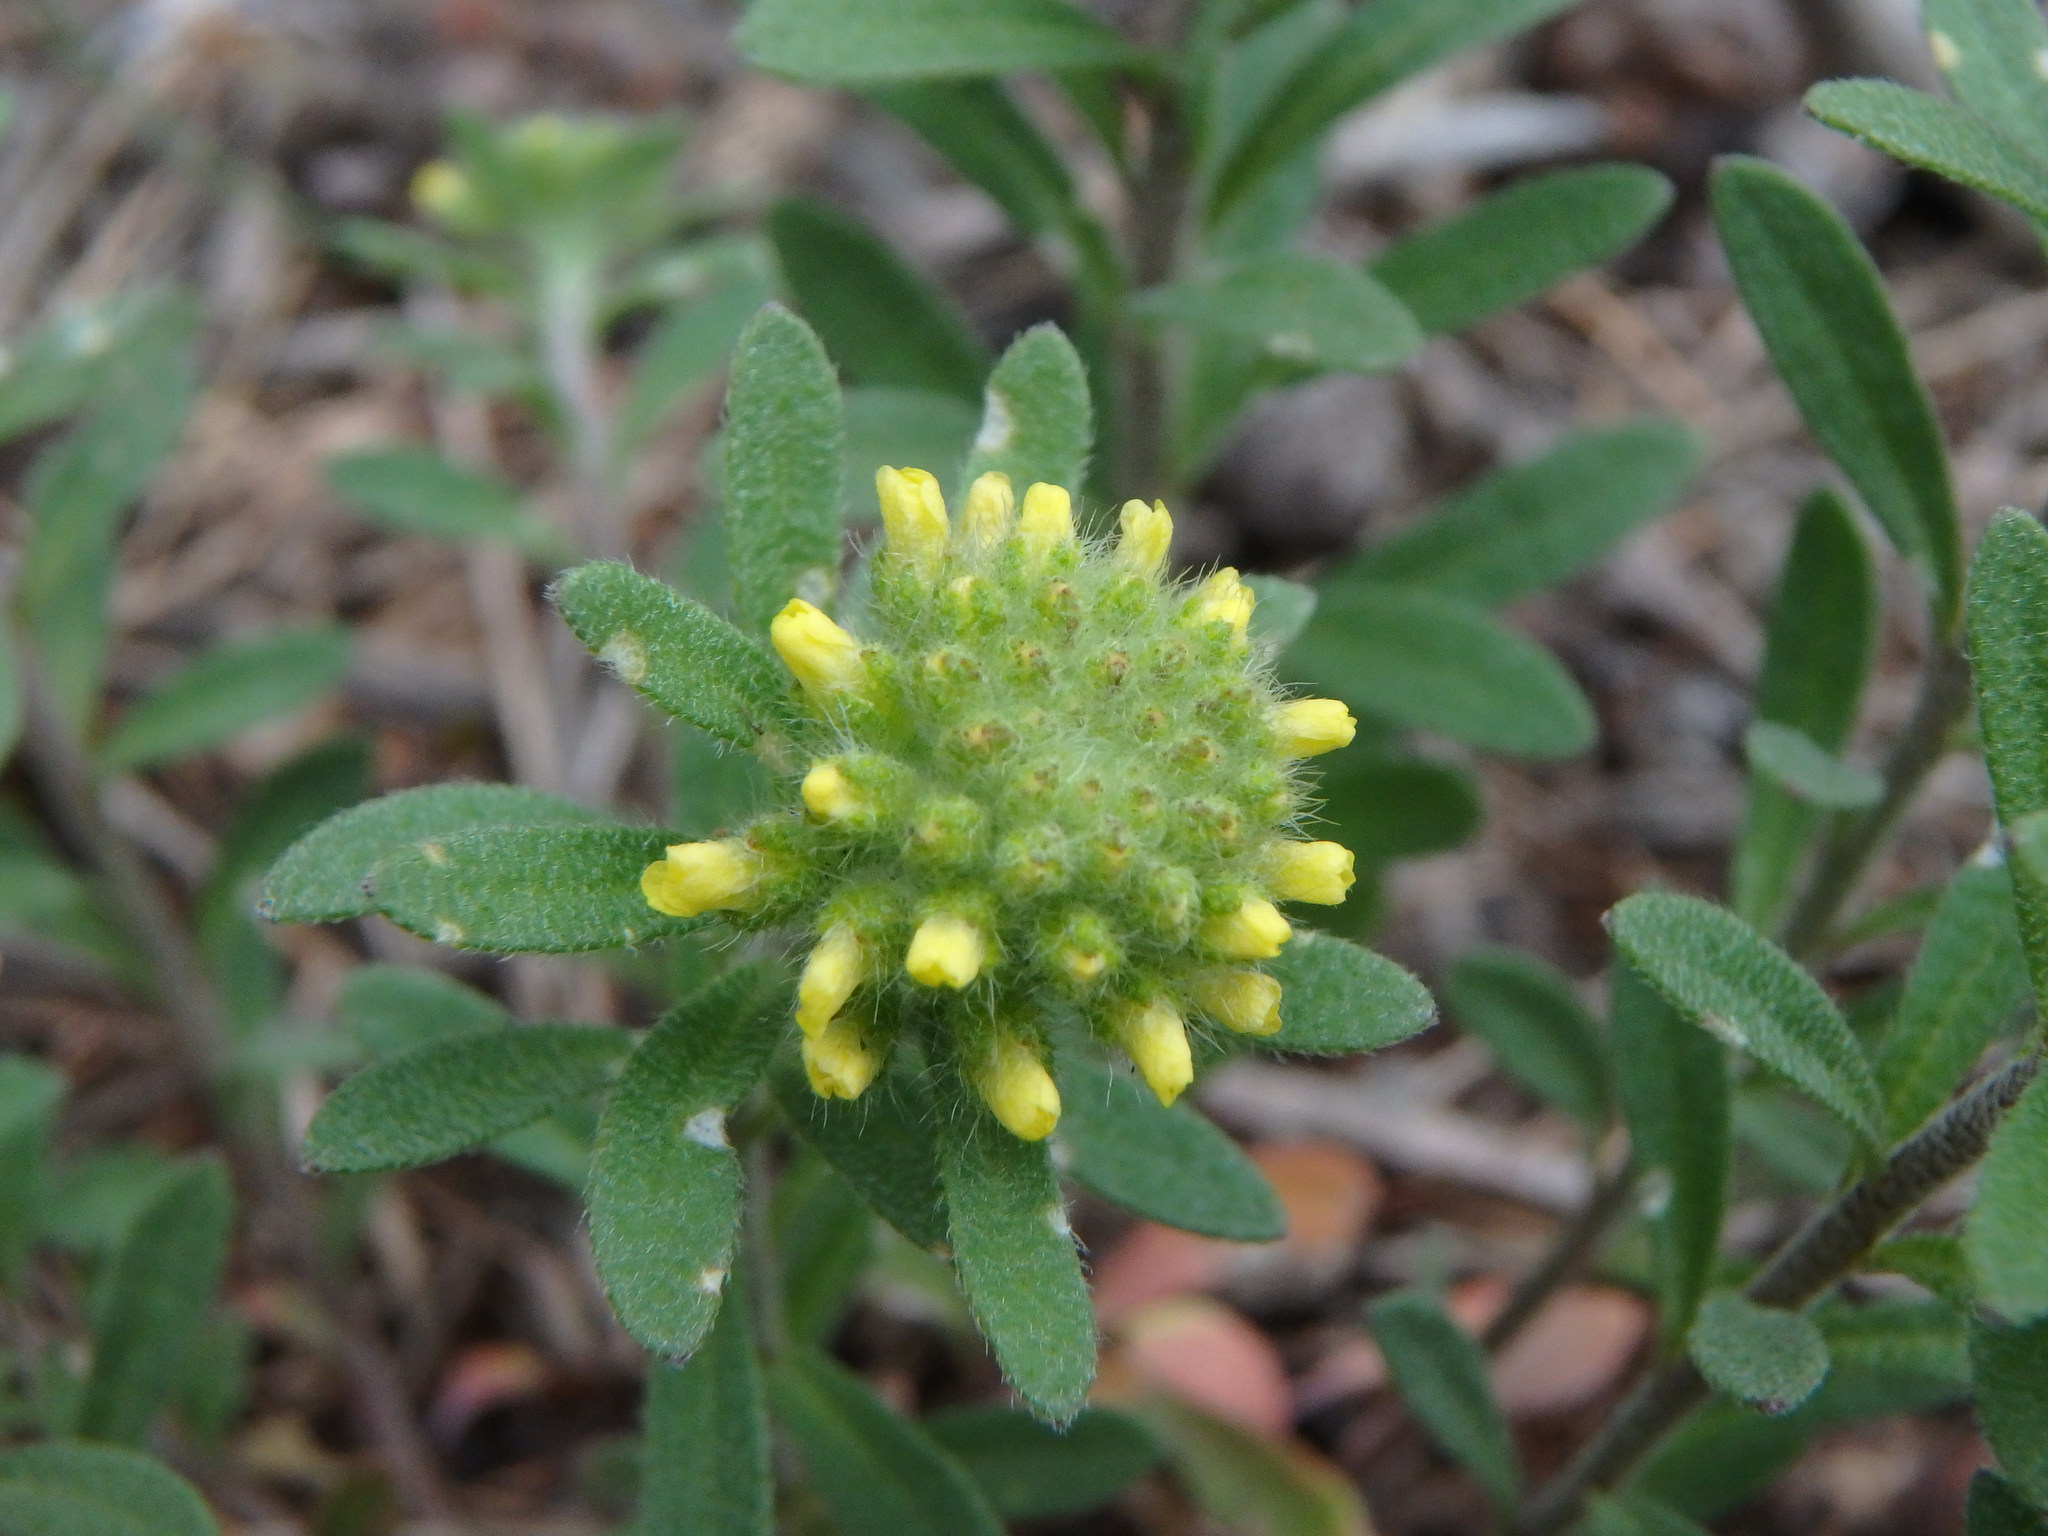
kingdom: Plantae
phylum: Tracheophyta
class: Magnoliopsida
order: Brassicales
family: Brassicaceae
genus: Alyssum
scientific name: Alyssum alyssoides
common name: Small alison
